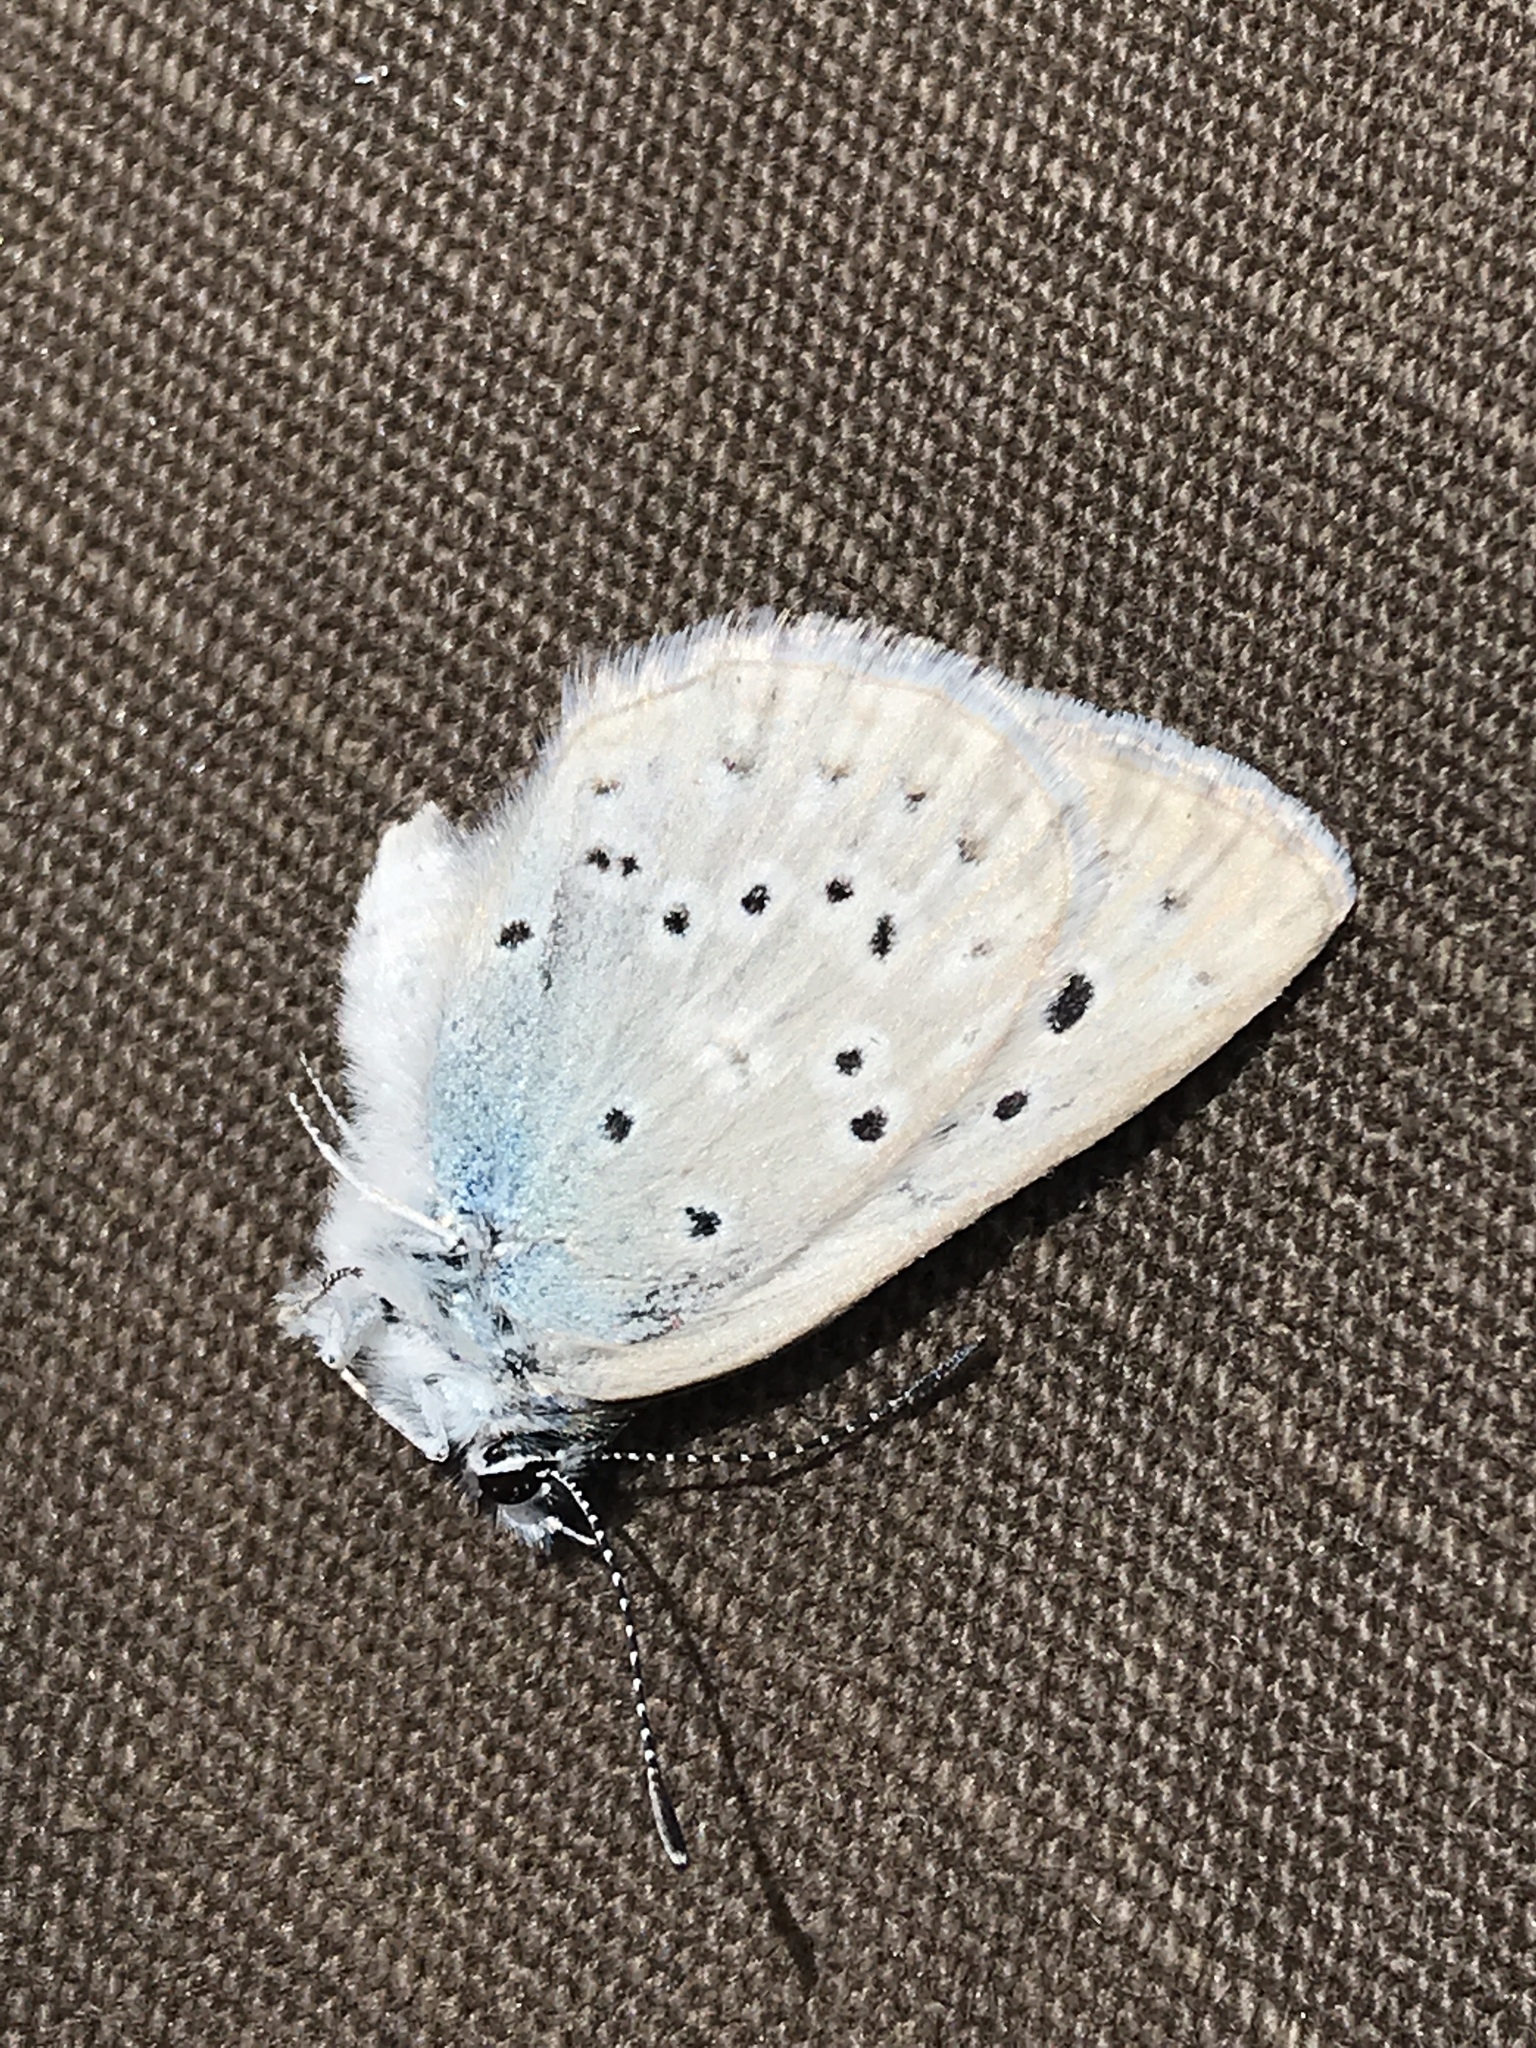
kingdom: Animalia
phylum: Arthropoda
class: Insecta
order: Lepidoptera
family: Lycaenidae
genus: Icaricia
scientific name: Icaricia icarioides
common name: Boisduval's blue
